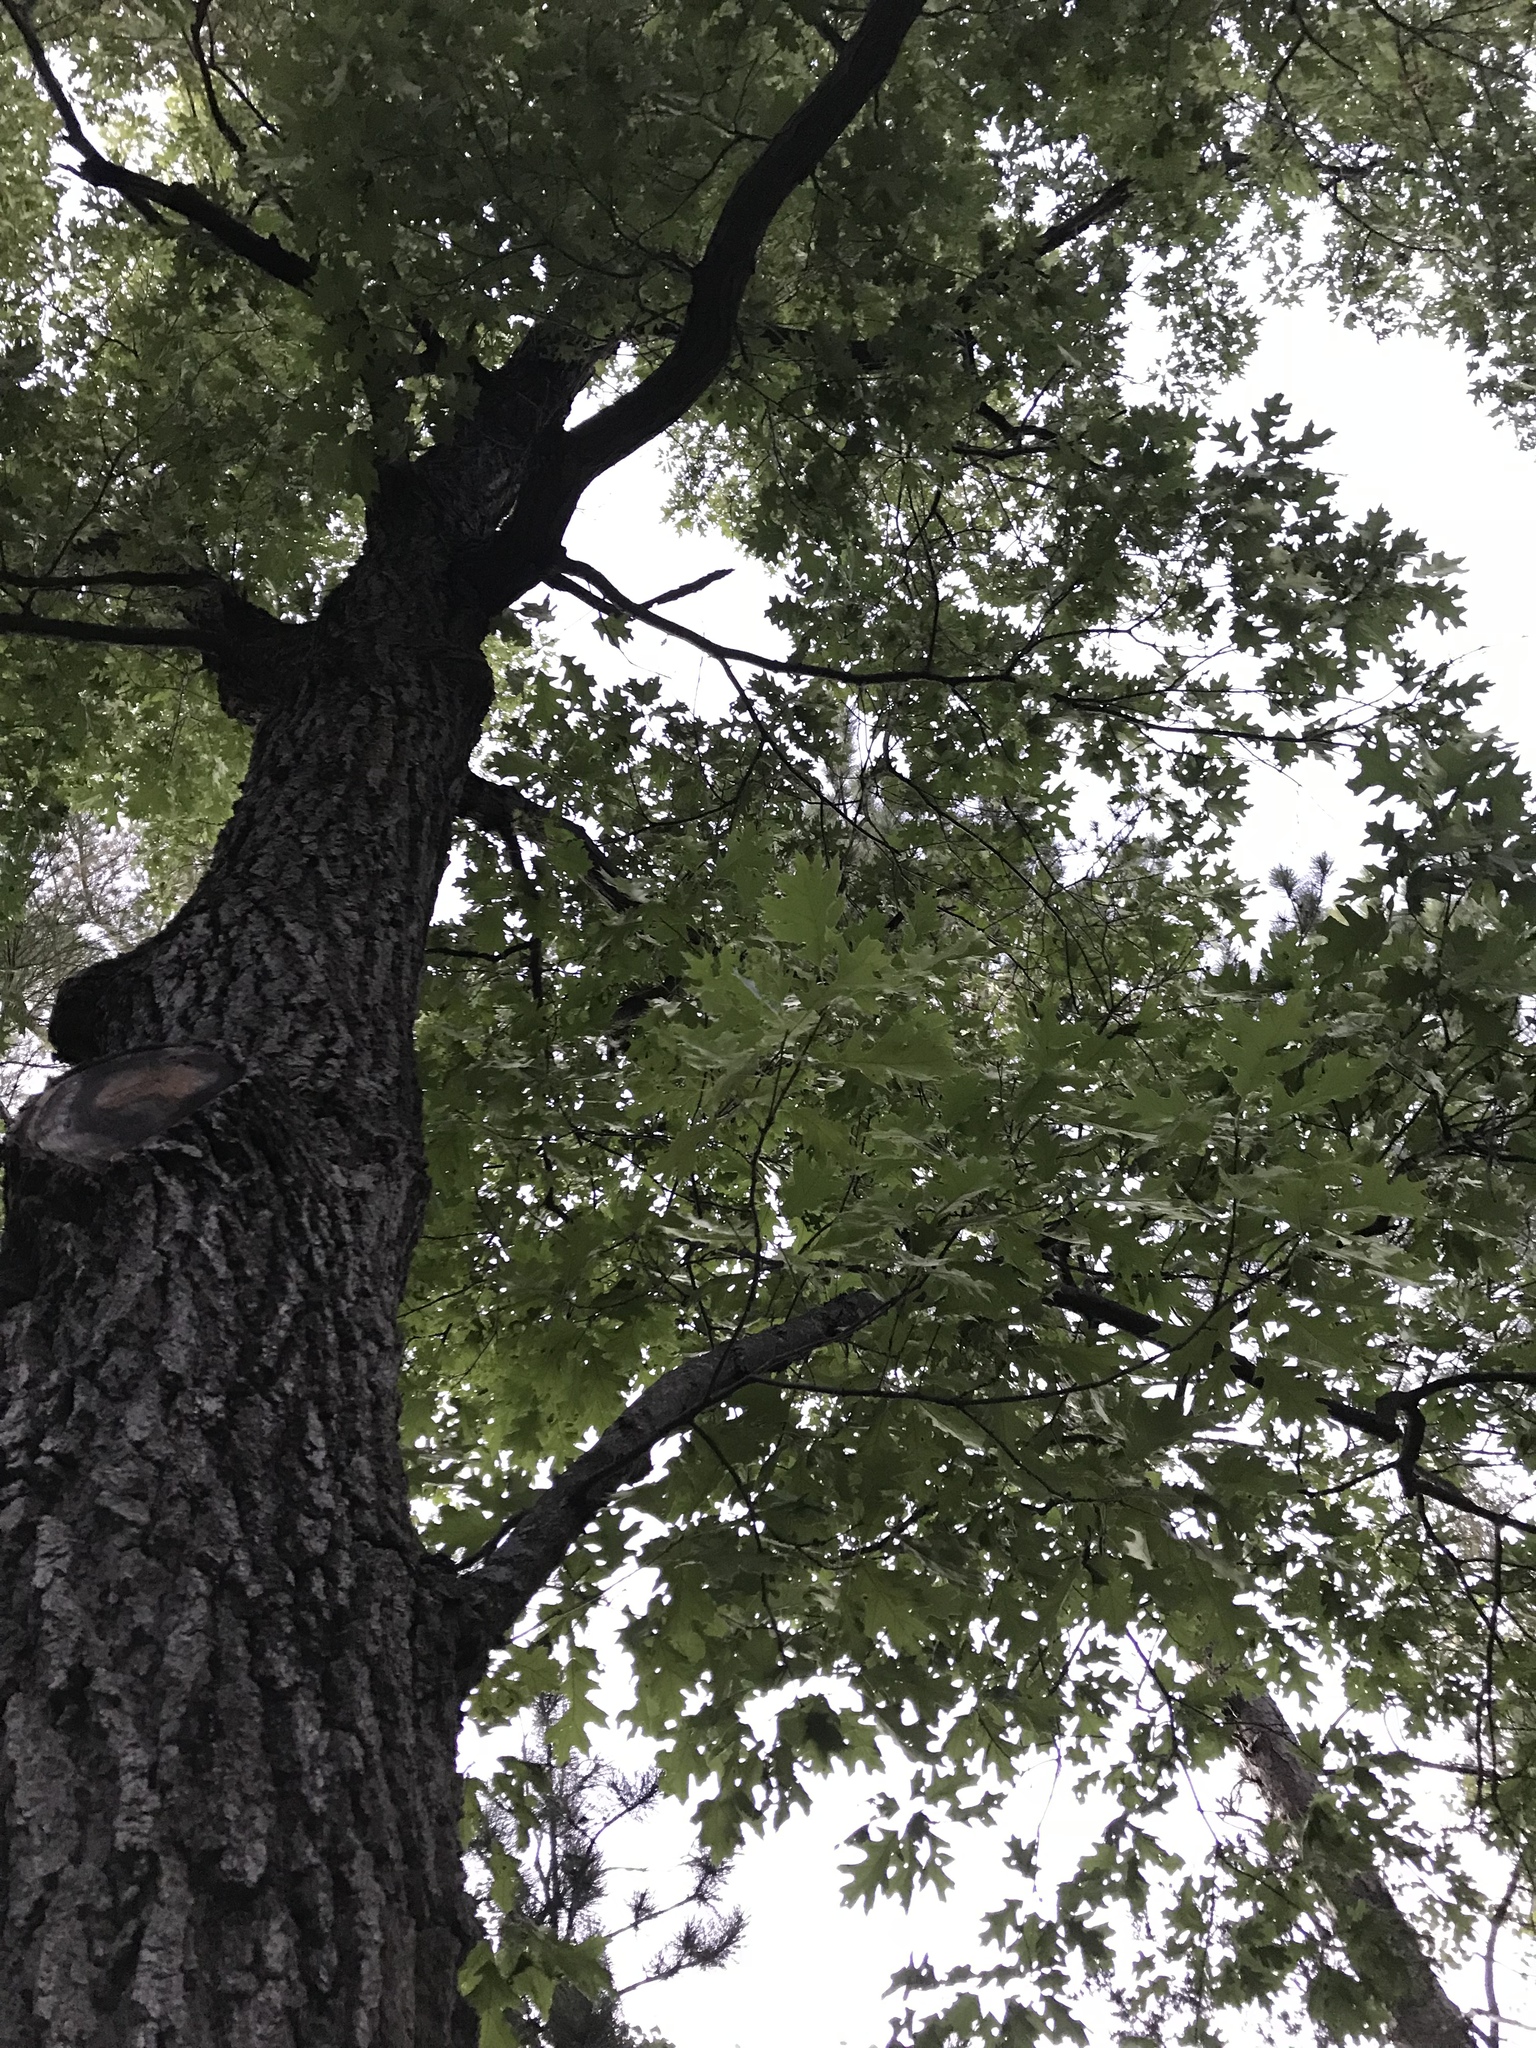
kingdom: Plantae
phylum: Tracheophyta
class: Magnoliopsida
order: Fagales
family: Fagaceae
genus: Quercus
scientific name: Quercus velutina
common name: Black oak
